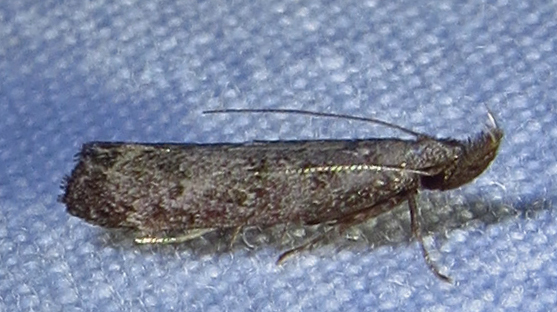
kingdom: Animalia
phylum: Arthropoda
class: Insecta
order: Lepidoptera
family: Gelechiidae
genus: Dichomeris
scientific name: Dichomeris inversella
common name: Inverse dichomeris moth
